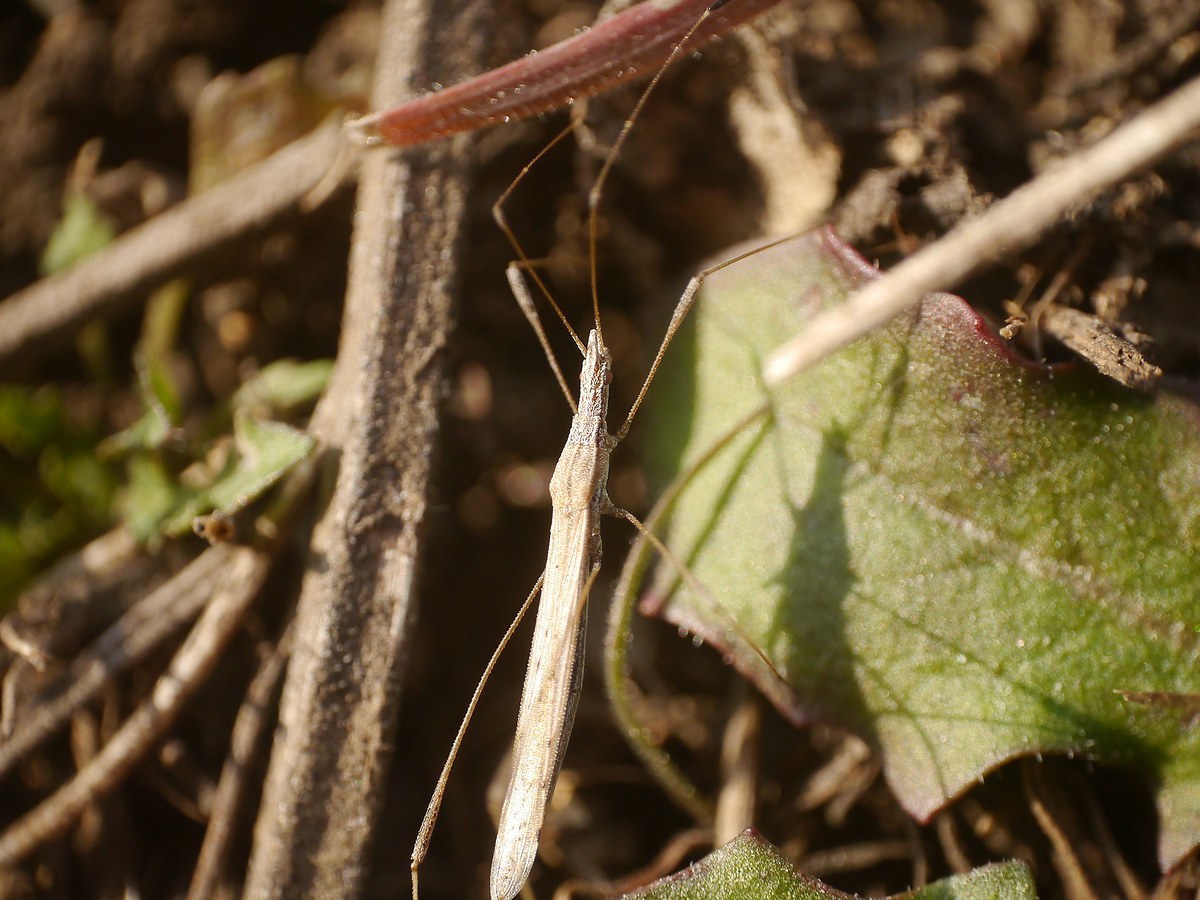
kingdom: Animalia
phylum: Arthropoda
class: Insecta
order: Hemiptera
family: Berytidae
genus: Neides
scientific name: Neides tipularius
